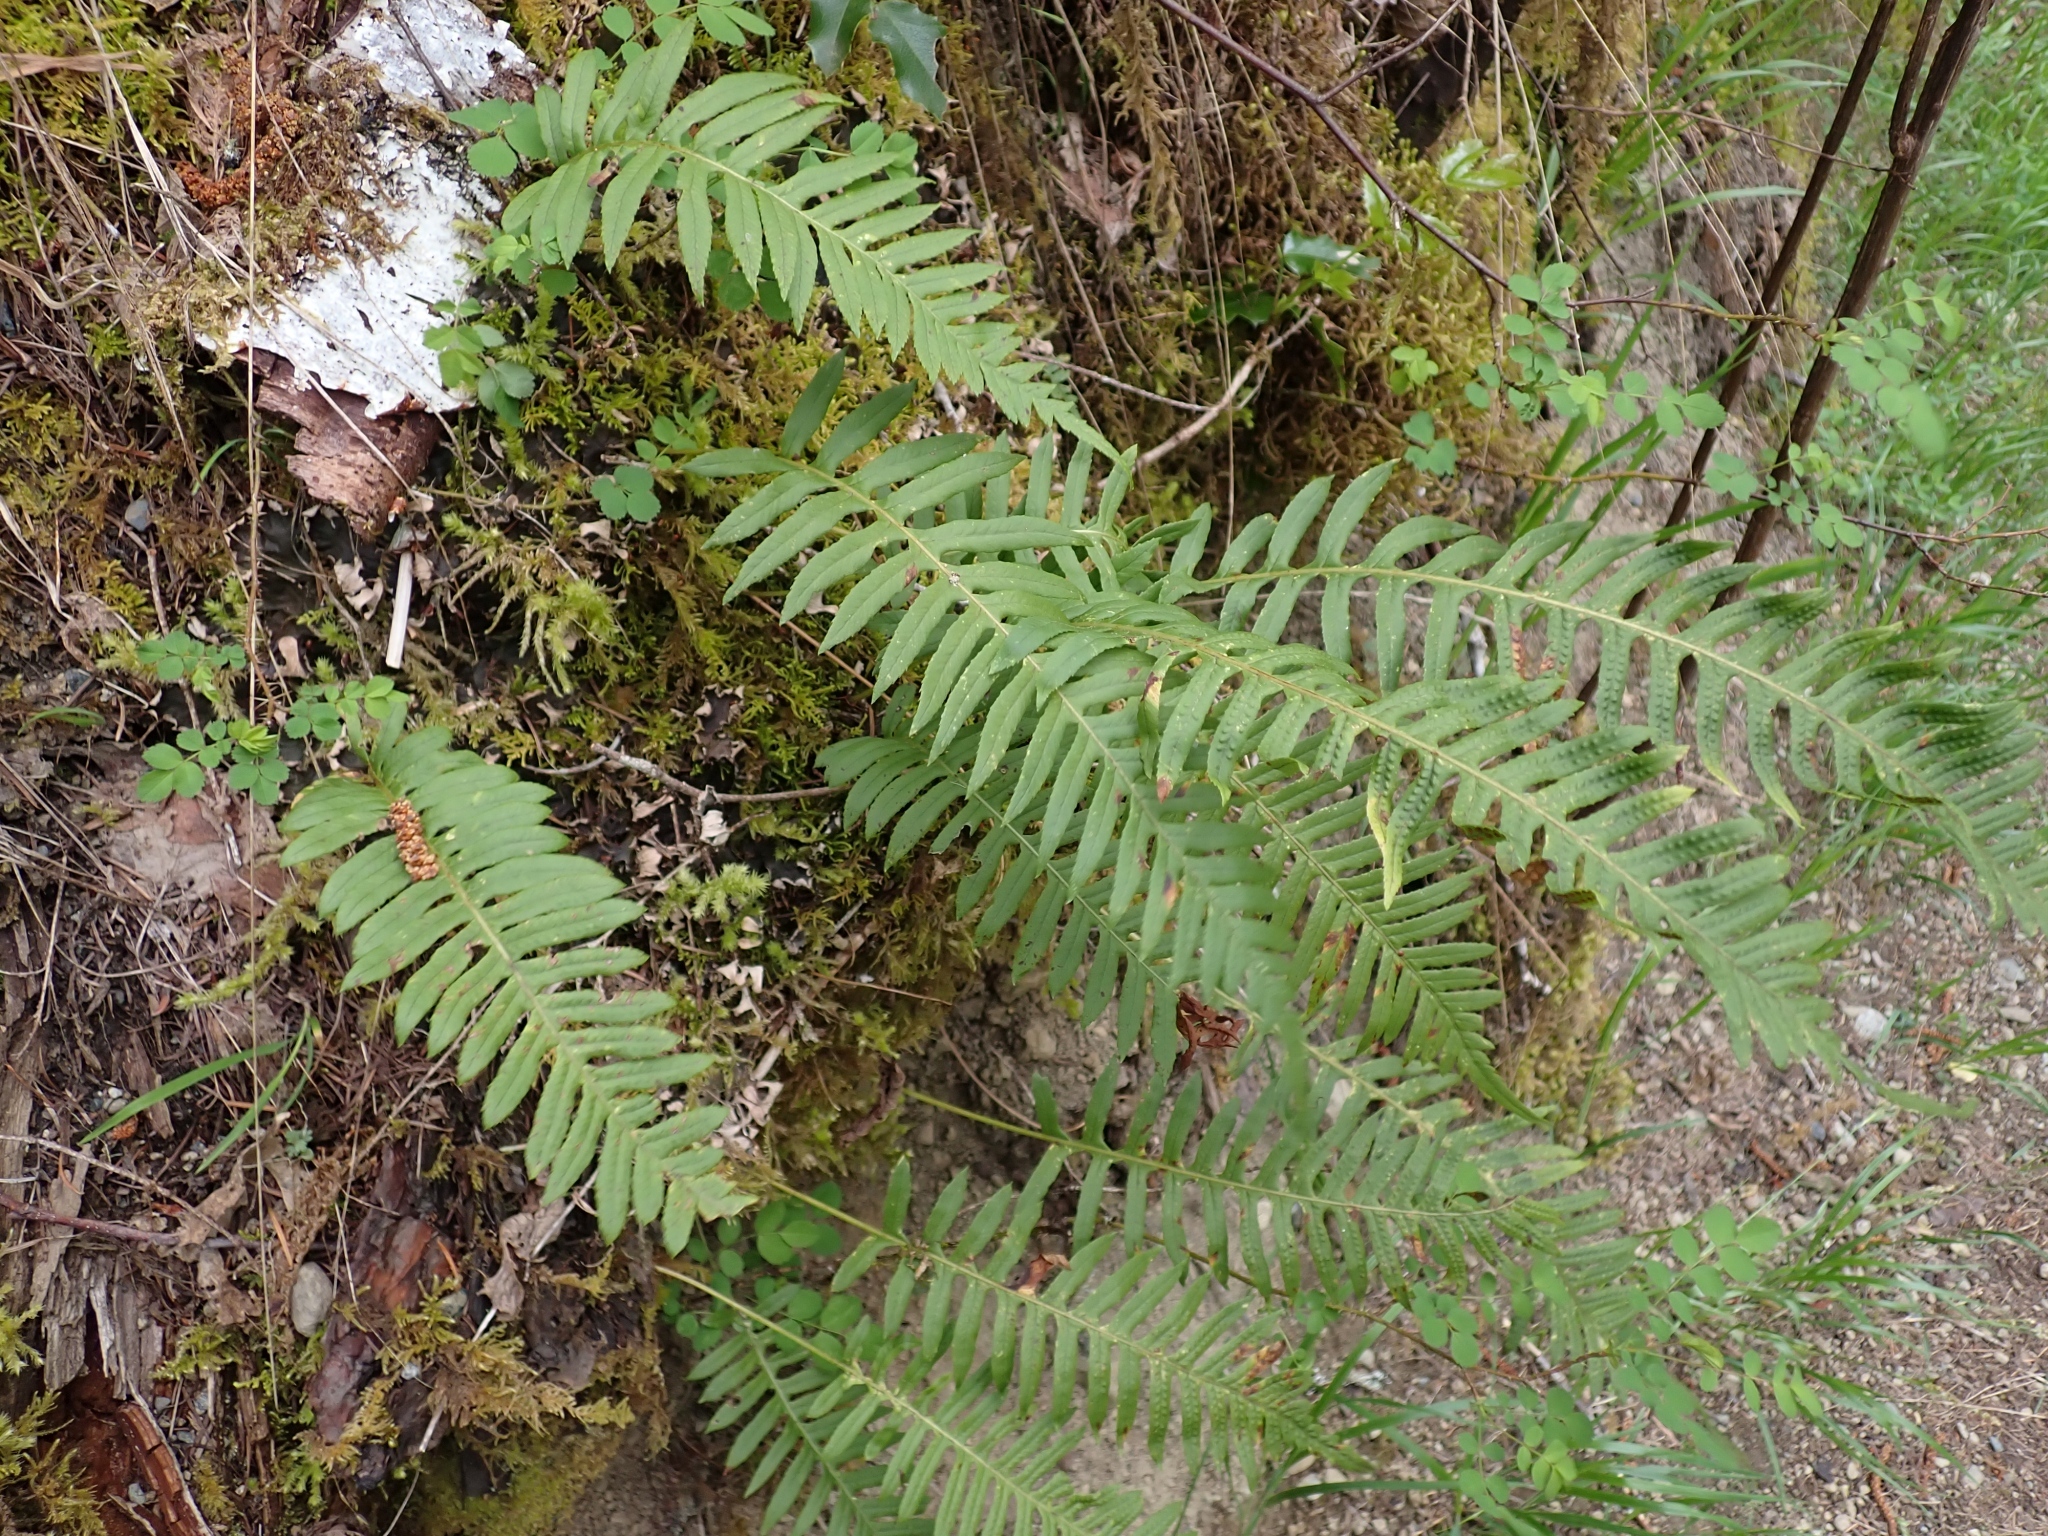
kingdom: Plantae
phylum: Tracheophyta
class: Polypodiopsida
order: Polypodiales
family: Polypodiaceae
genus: Polypodium
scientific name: Polypodium glycyrrhiza
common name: Licorice fern
